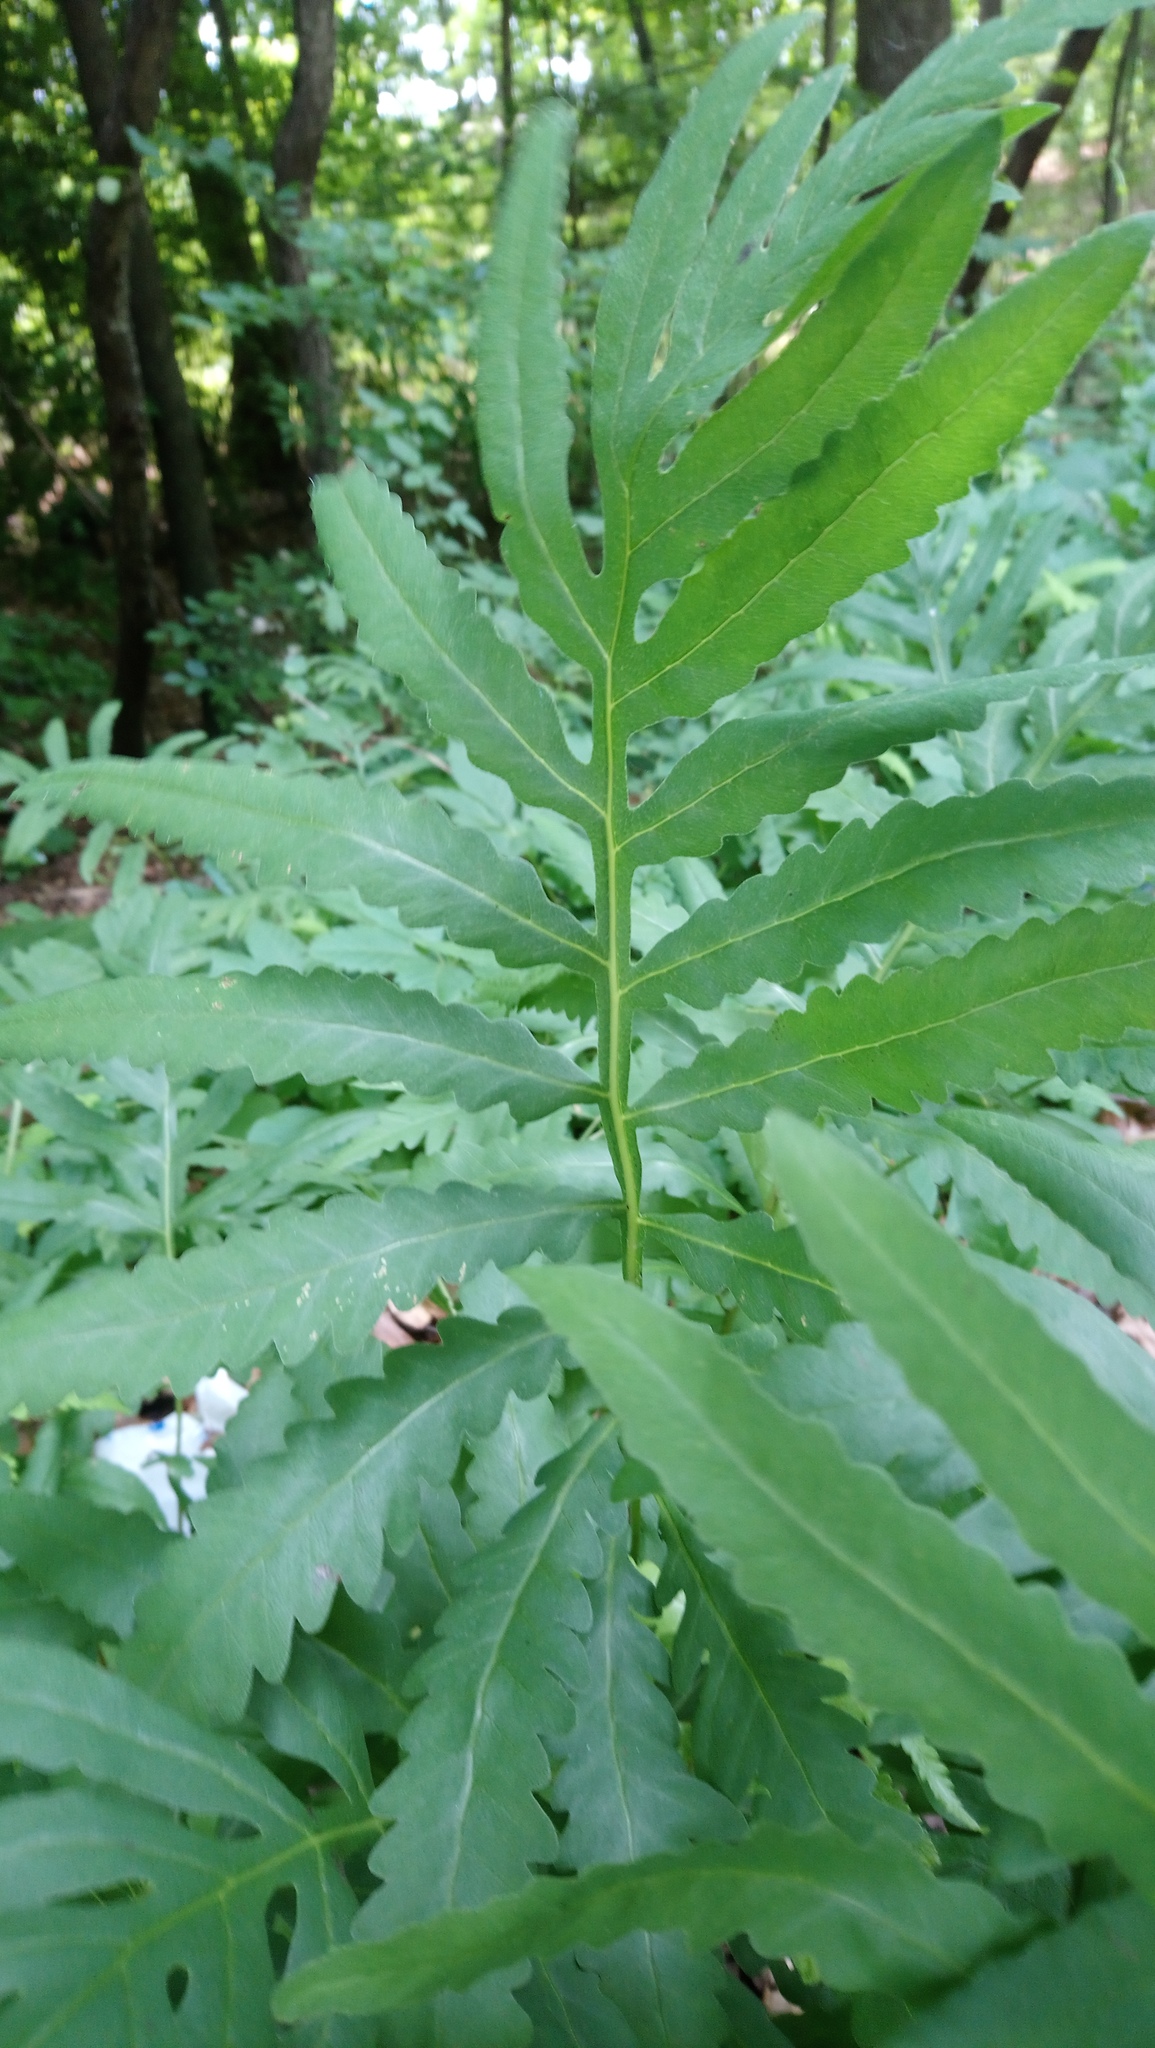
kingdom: Plantae
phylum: Tracheophyta
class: Polypodiopsida
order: Polypodiales
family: Onocleaceae
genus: Onoclea
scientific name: Onoclea sensibilis
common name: Sensitive fern
